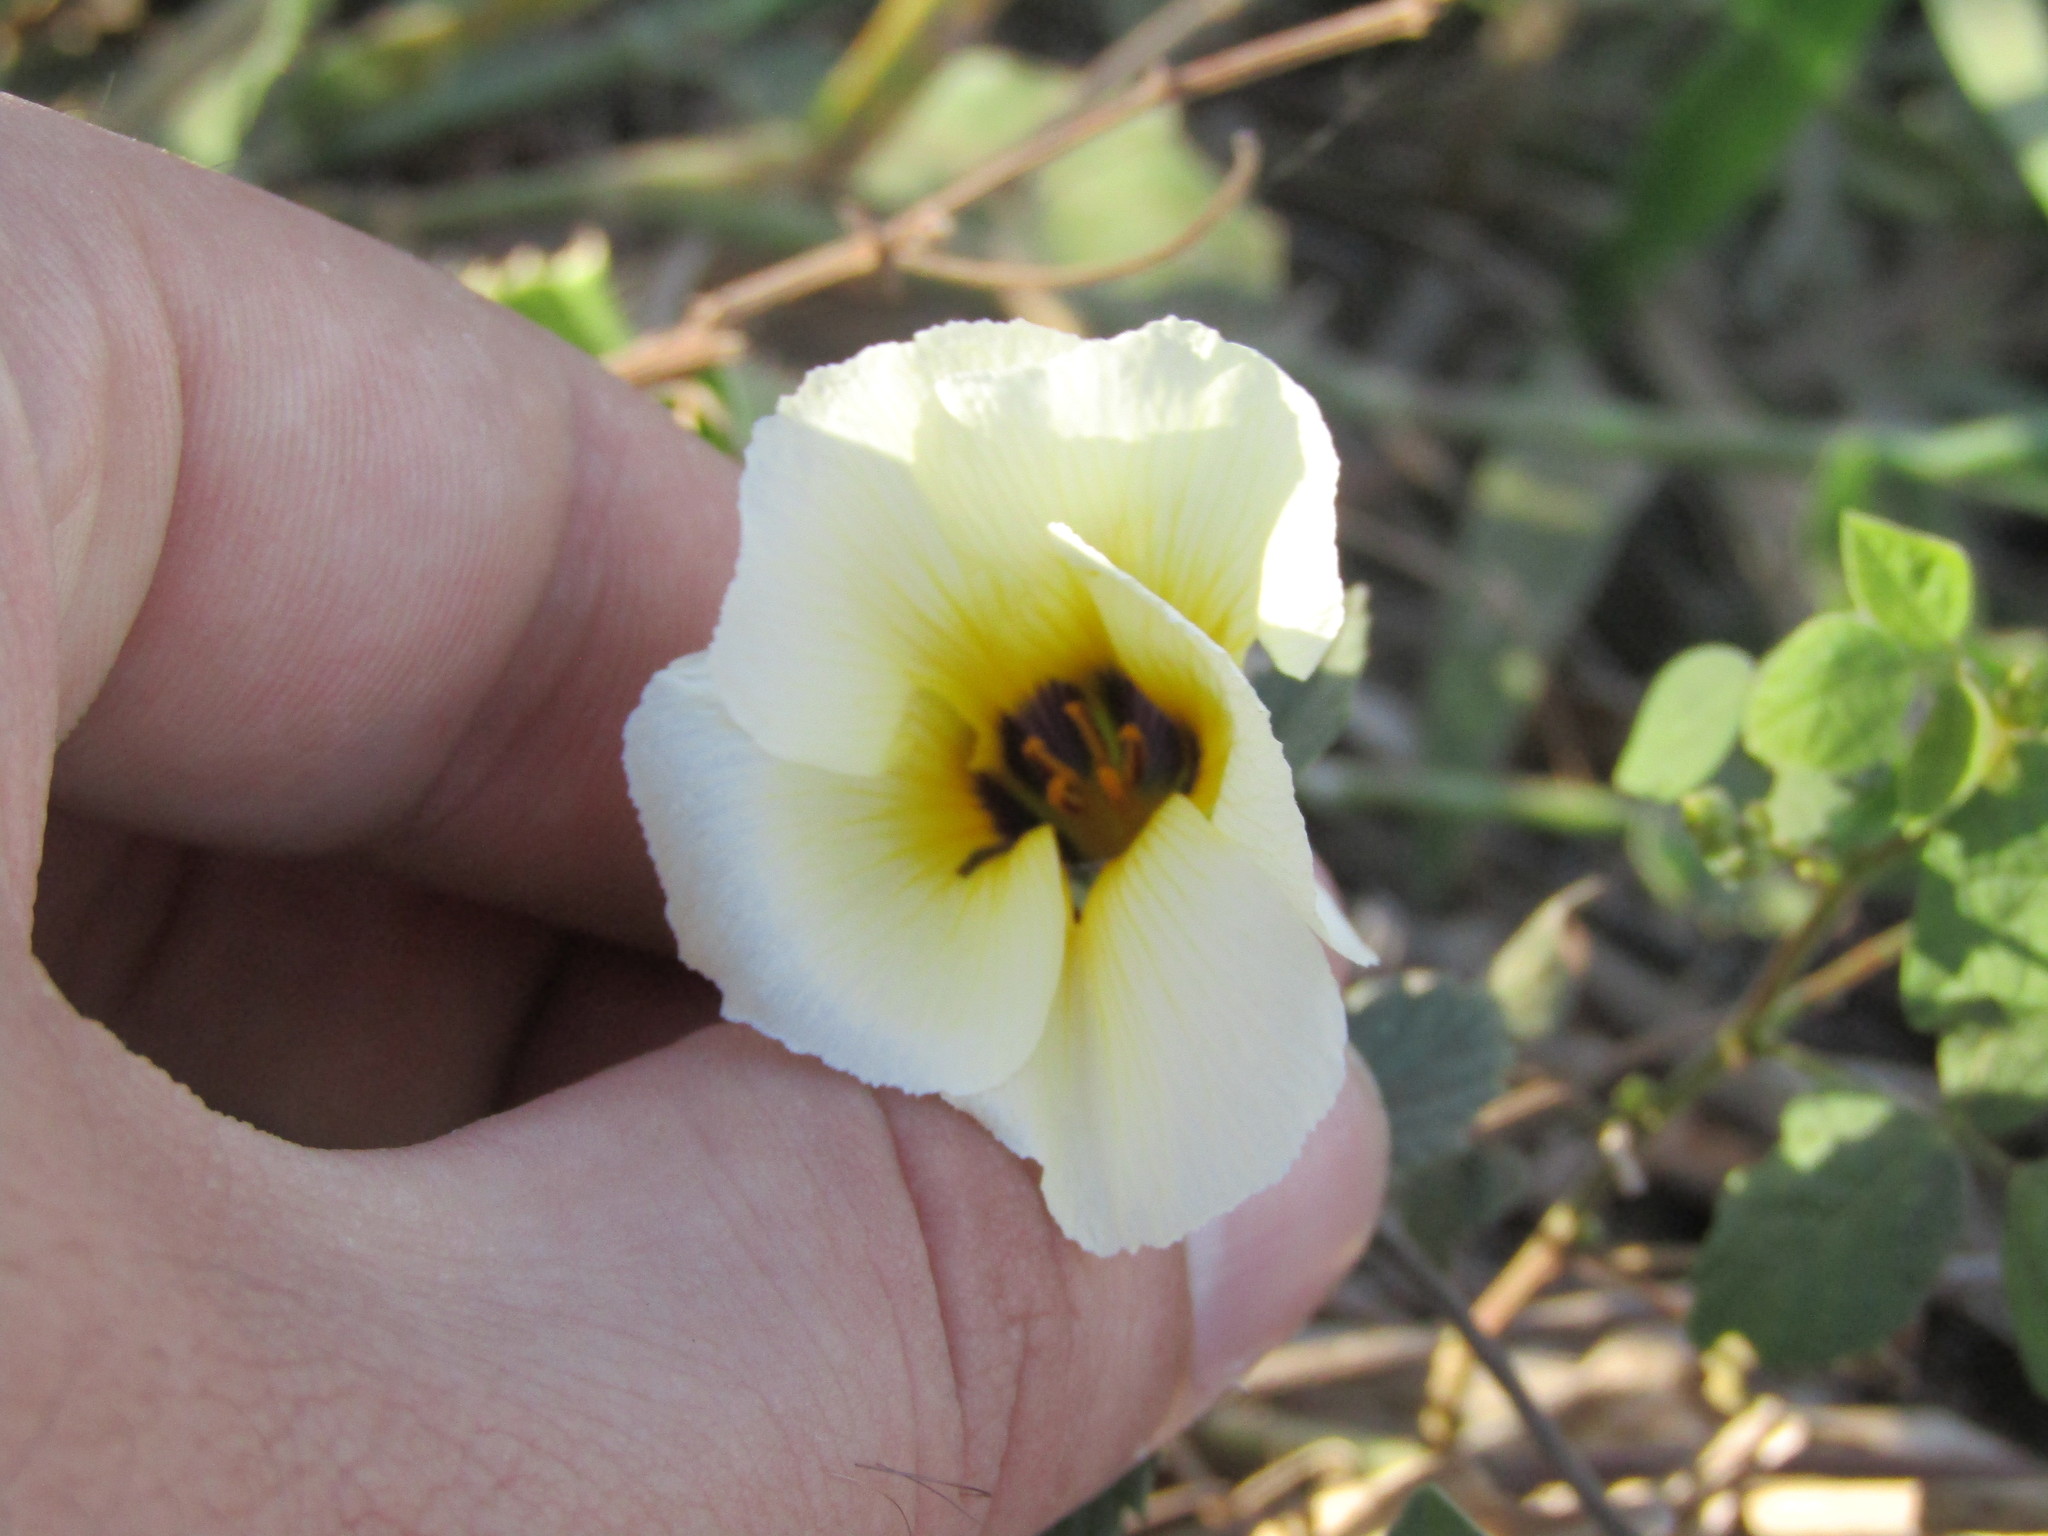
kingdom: Plantae
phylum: Tracheophyta
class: Magnoliopsida
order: Malpighiales
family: Turneraceae
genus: Turnera
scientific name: Turnera subulata
